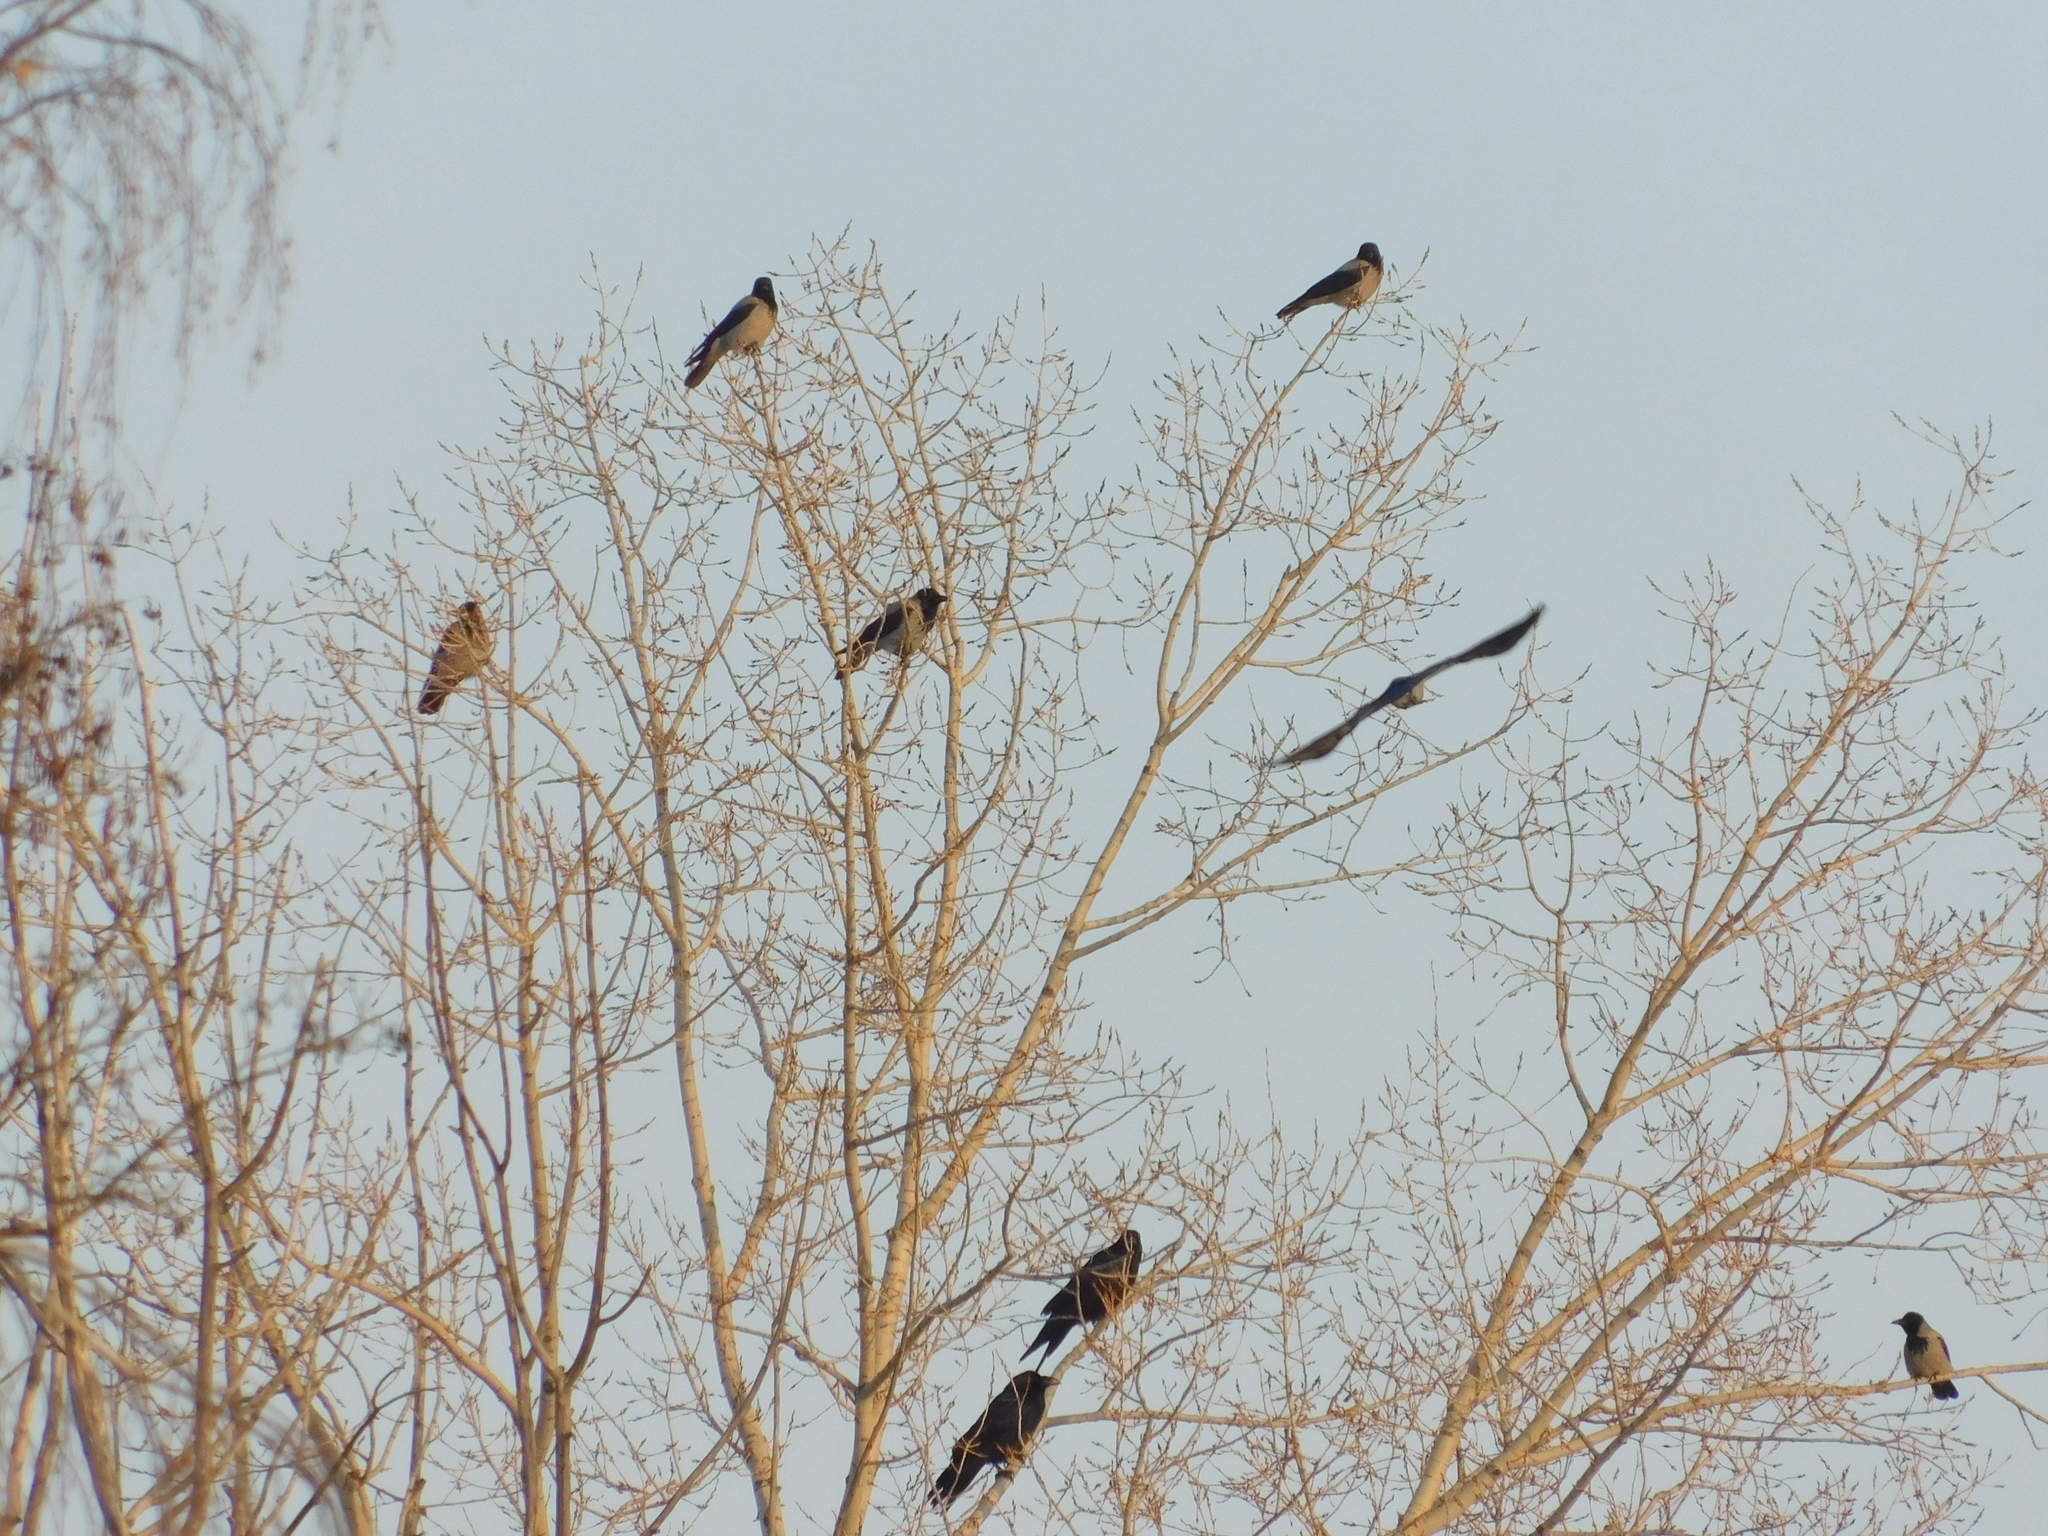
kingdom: Animalia
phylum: Chordata
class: Aves
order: Passeriformes
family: Corvidae
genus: Corvus
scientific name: Corvus corax
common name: Common raven
